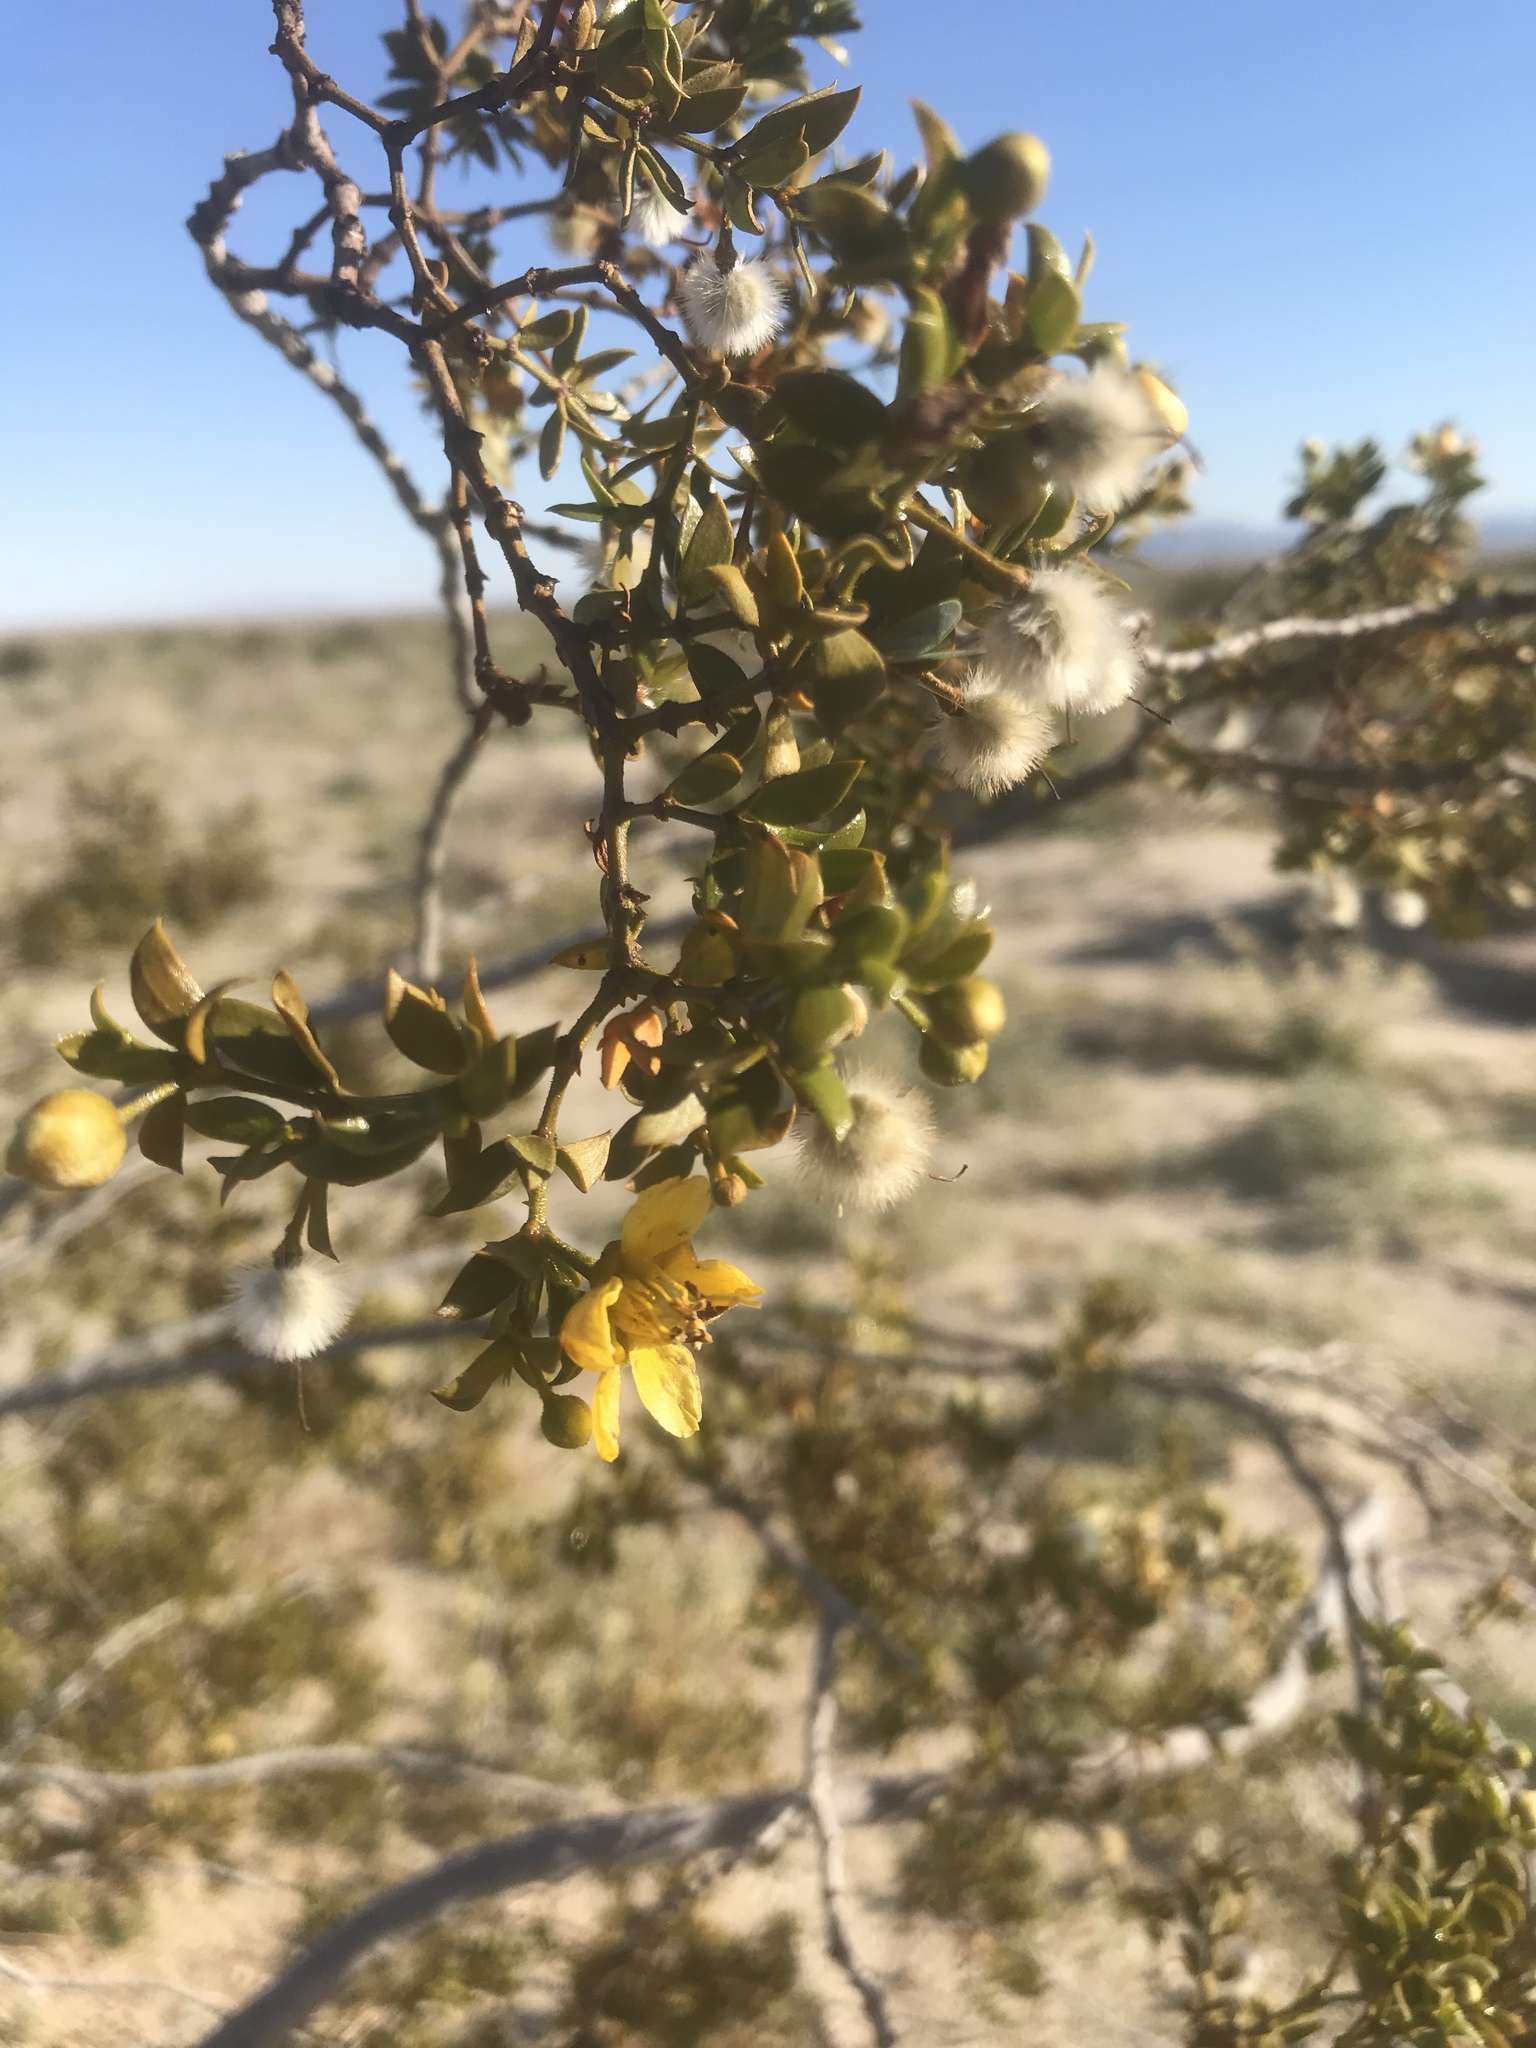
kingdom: Plantae
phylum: Tracheophyta
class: Magnoliopsida
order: Zygophyllales
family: Zygophyllaceae
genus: Larrea
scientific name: Larrea tridentata
